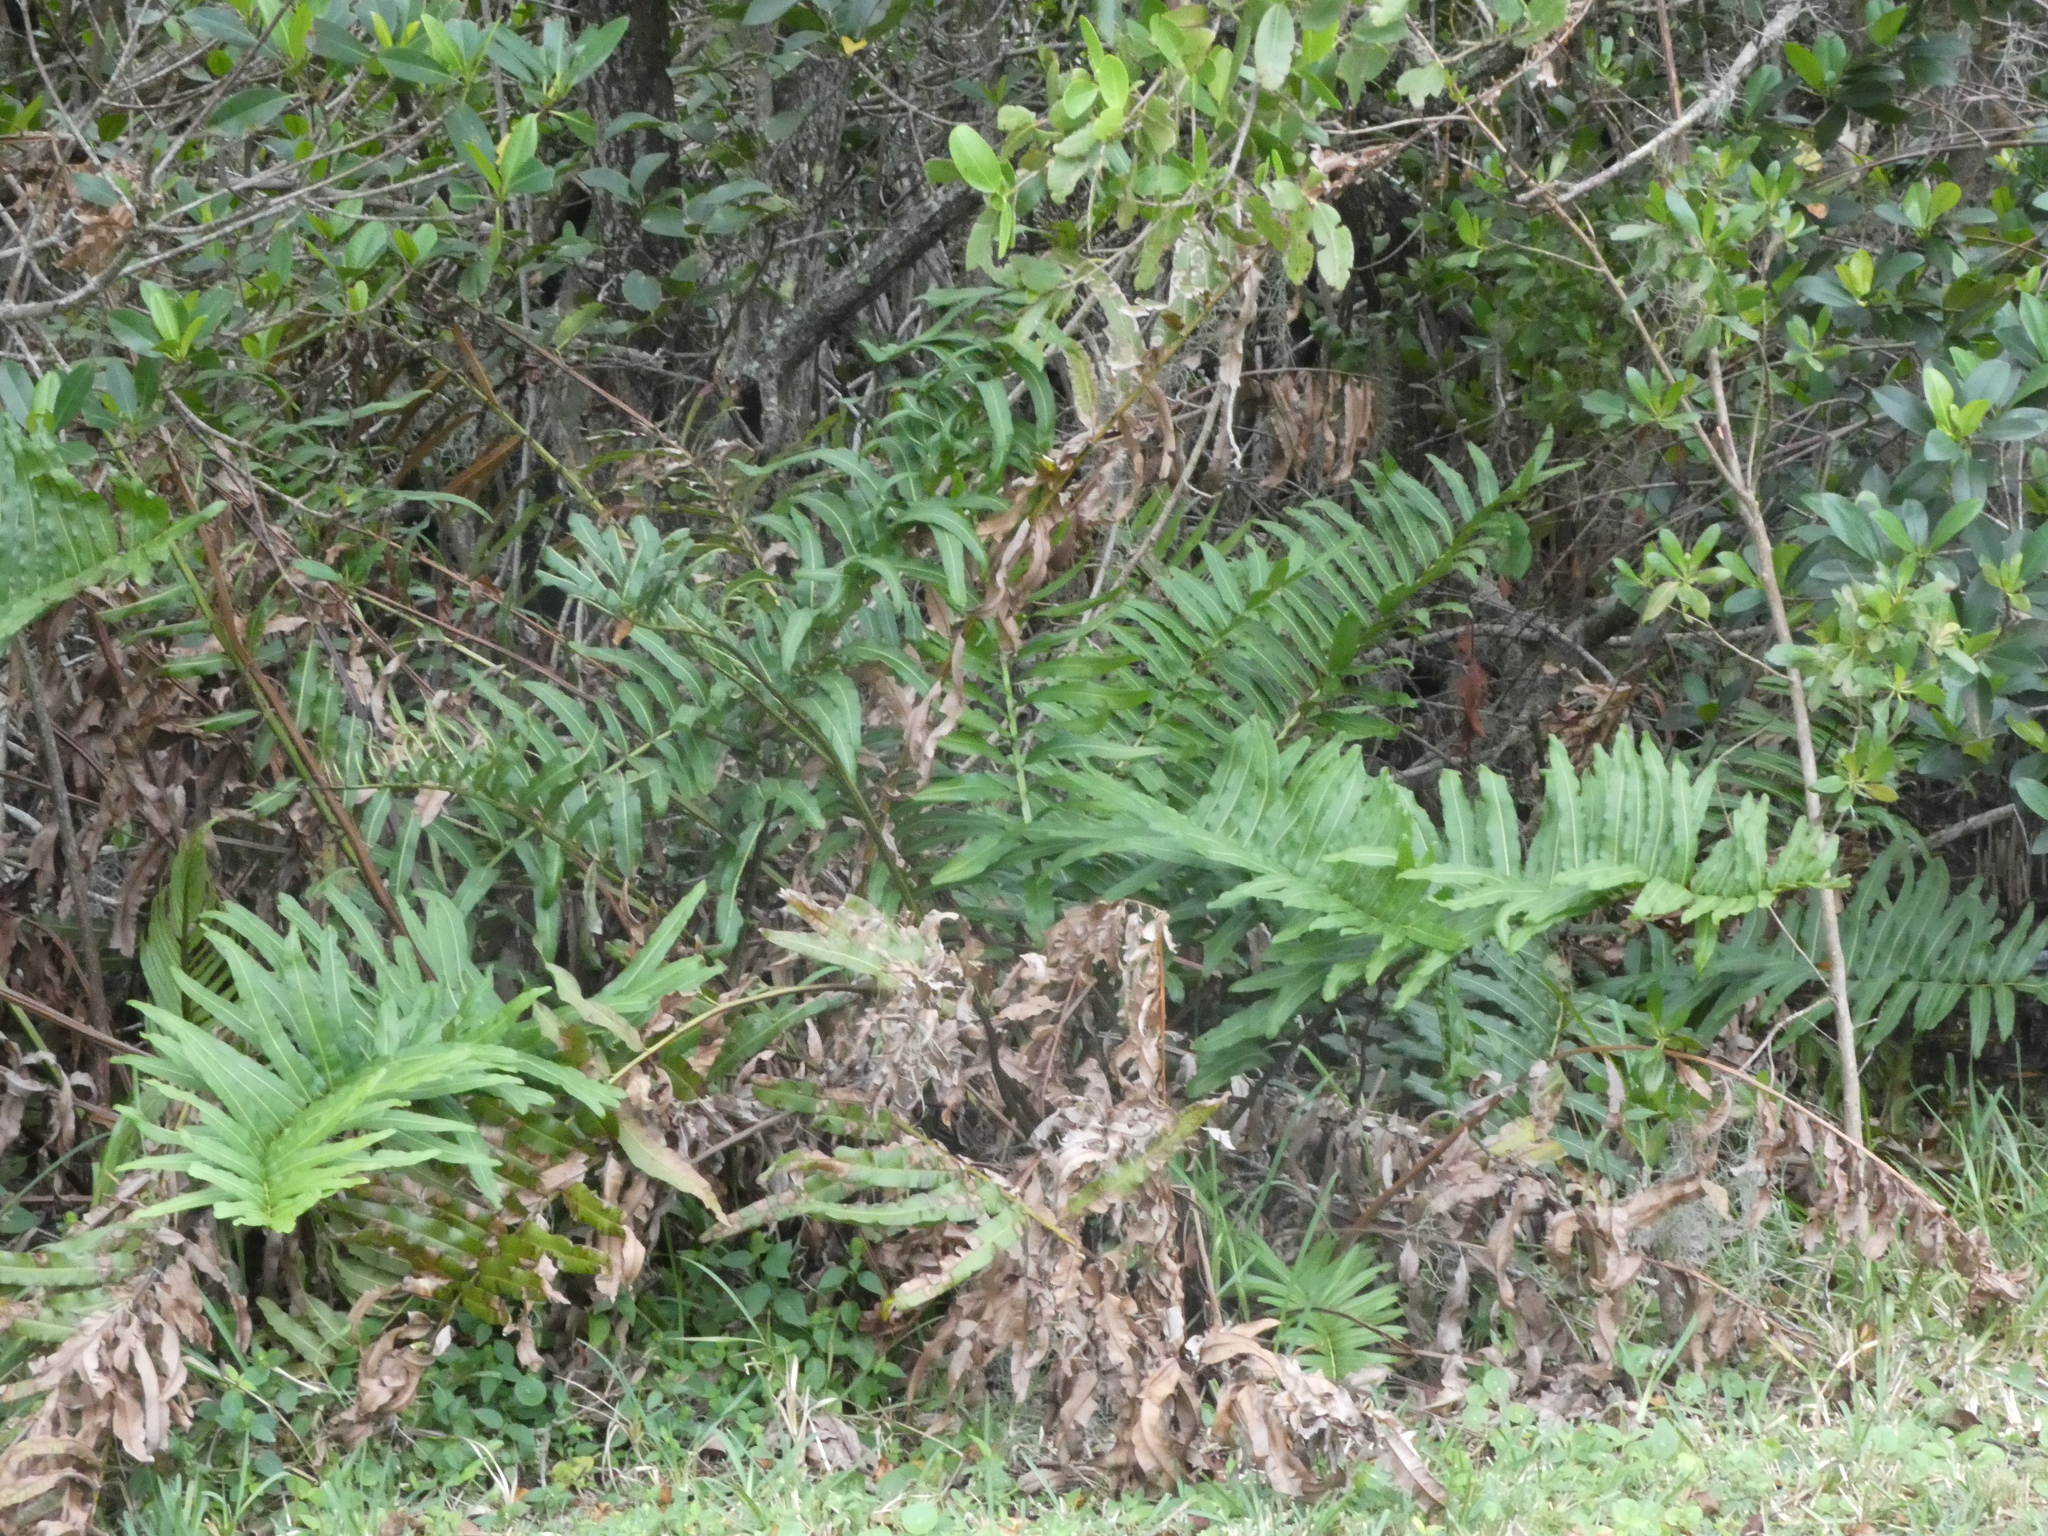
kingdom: Plantae
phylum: Tracheophyta
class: Polypodiopsida
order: Polypodiales
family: Pteridaceae
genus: Acrostichum
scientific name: Acrostichum danaeifolium
